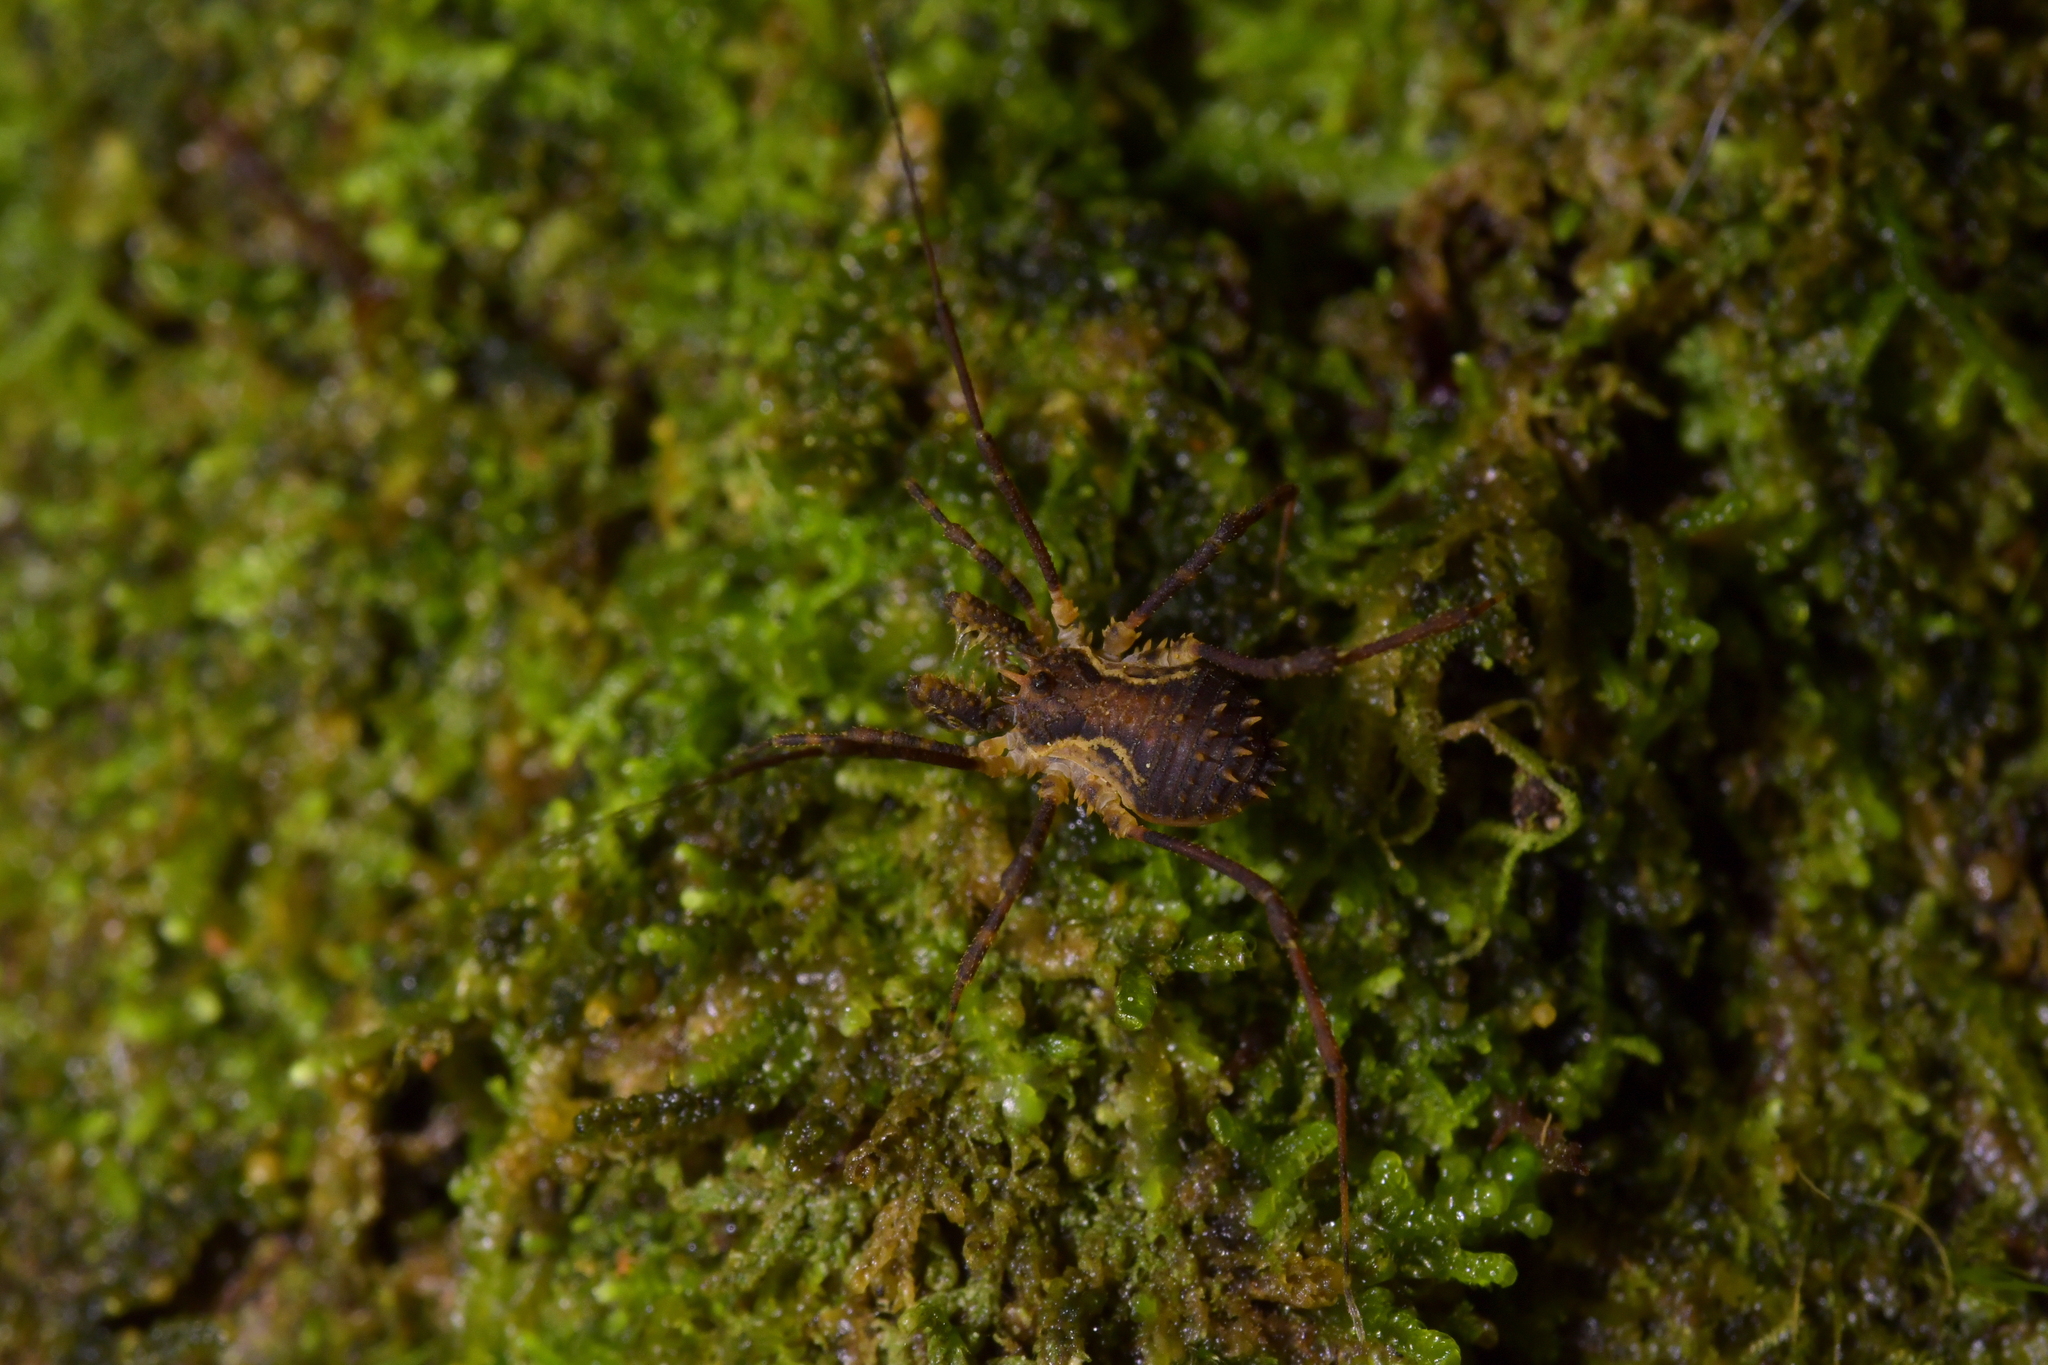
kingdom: Animalia
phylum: Arthropoda
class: Arachnida
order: Opiliones
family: Triaenonychidae
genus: Algidia
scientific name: Algidia chiltoni
